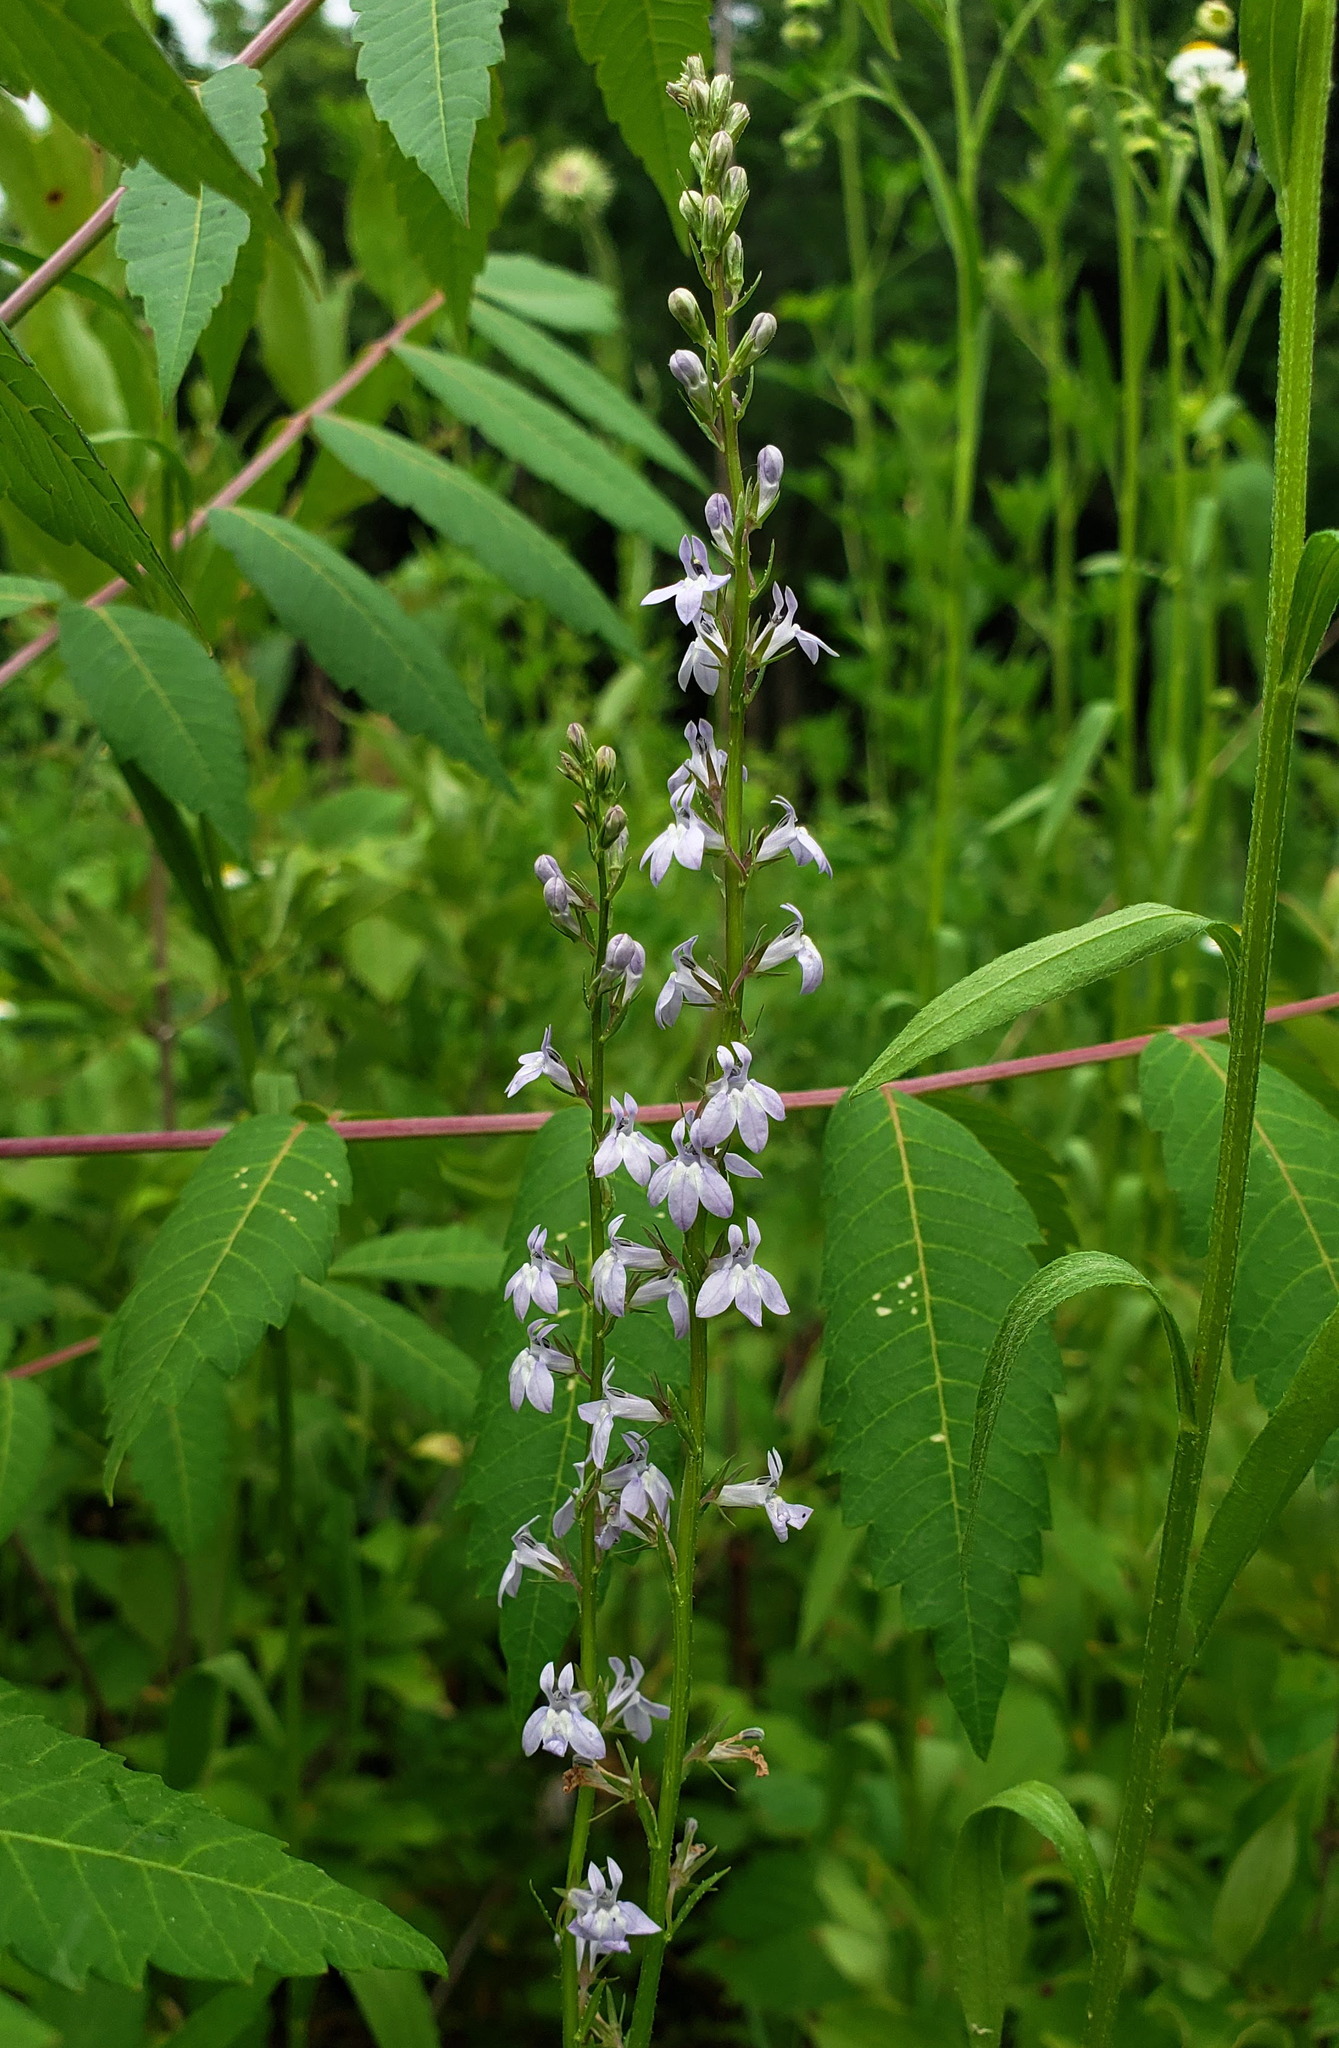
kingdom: Plantae
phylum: Tracheophyta
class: Magnoliopsida
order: Asterales
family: Campanulaceae
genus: Lobelia
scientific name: Lobelia spicata
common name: Pale-spike lobelia
